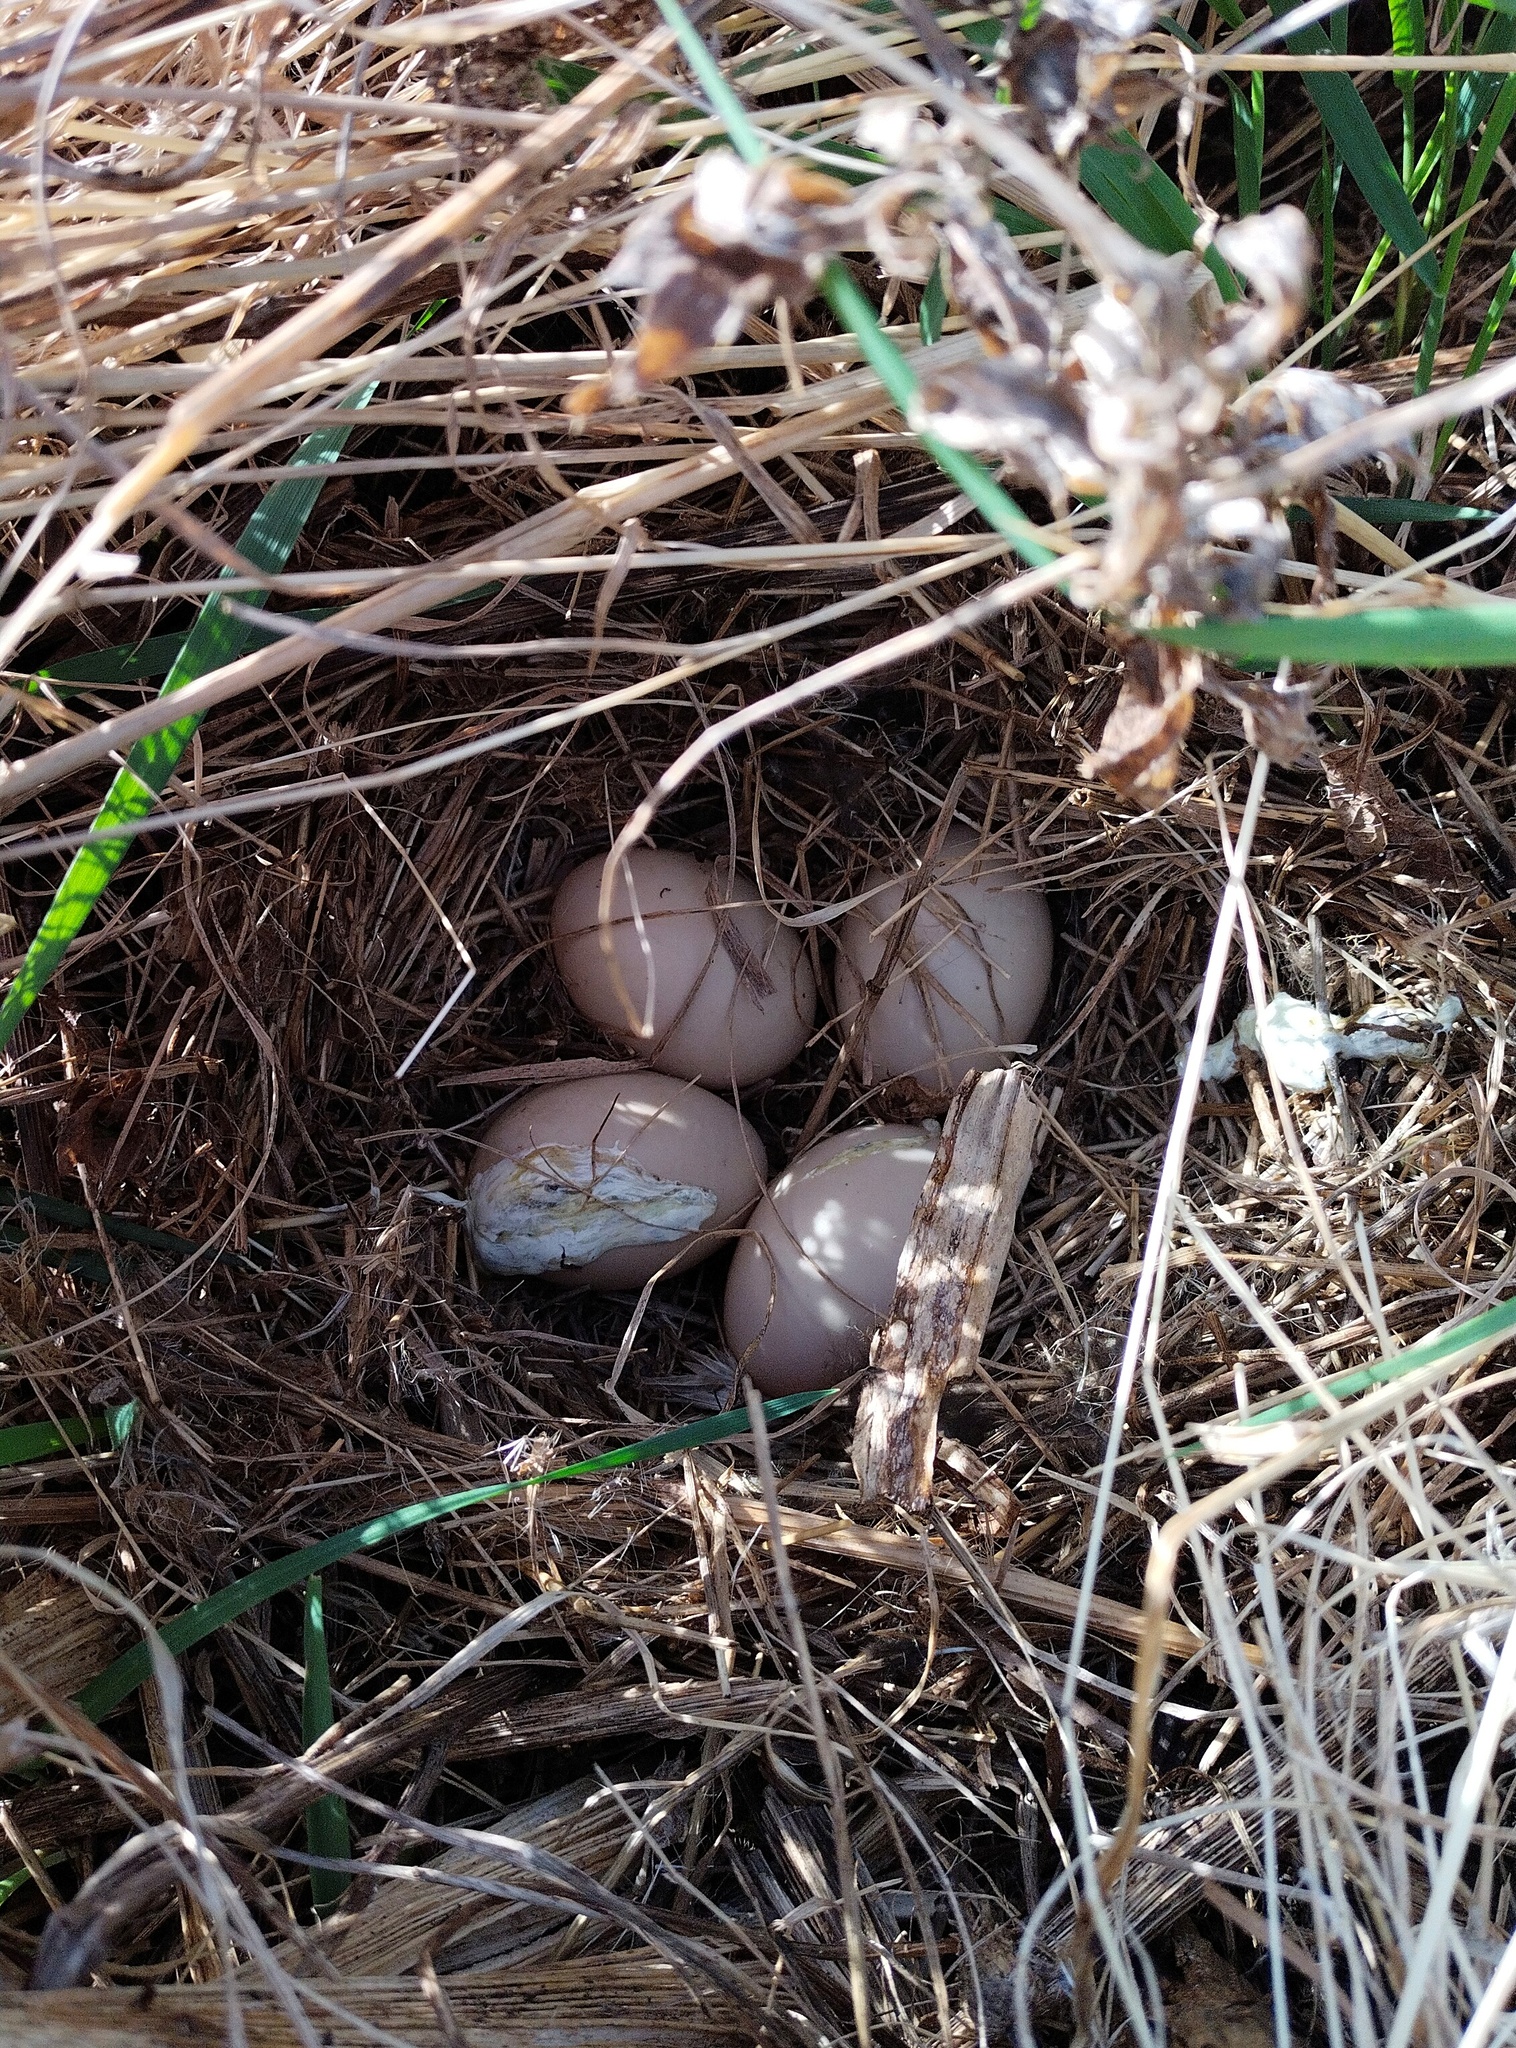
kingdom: Animalia
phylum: Chordata
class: Aves
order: Anseriformes
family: Anatidae
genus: Spatula
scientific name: Spatula querquedula
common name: Garganey
